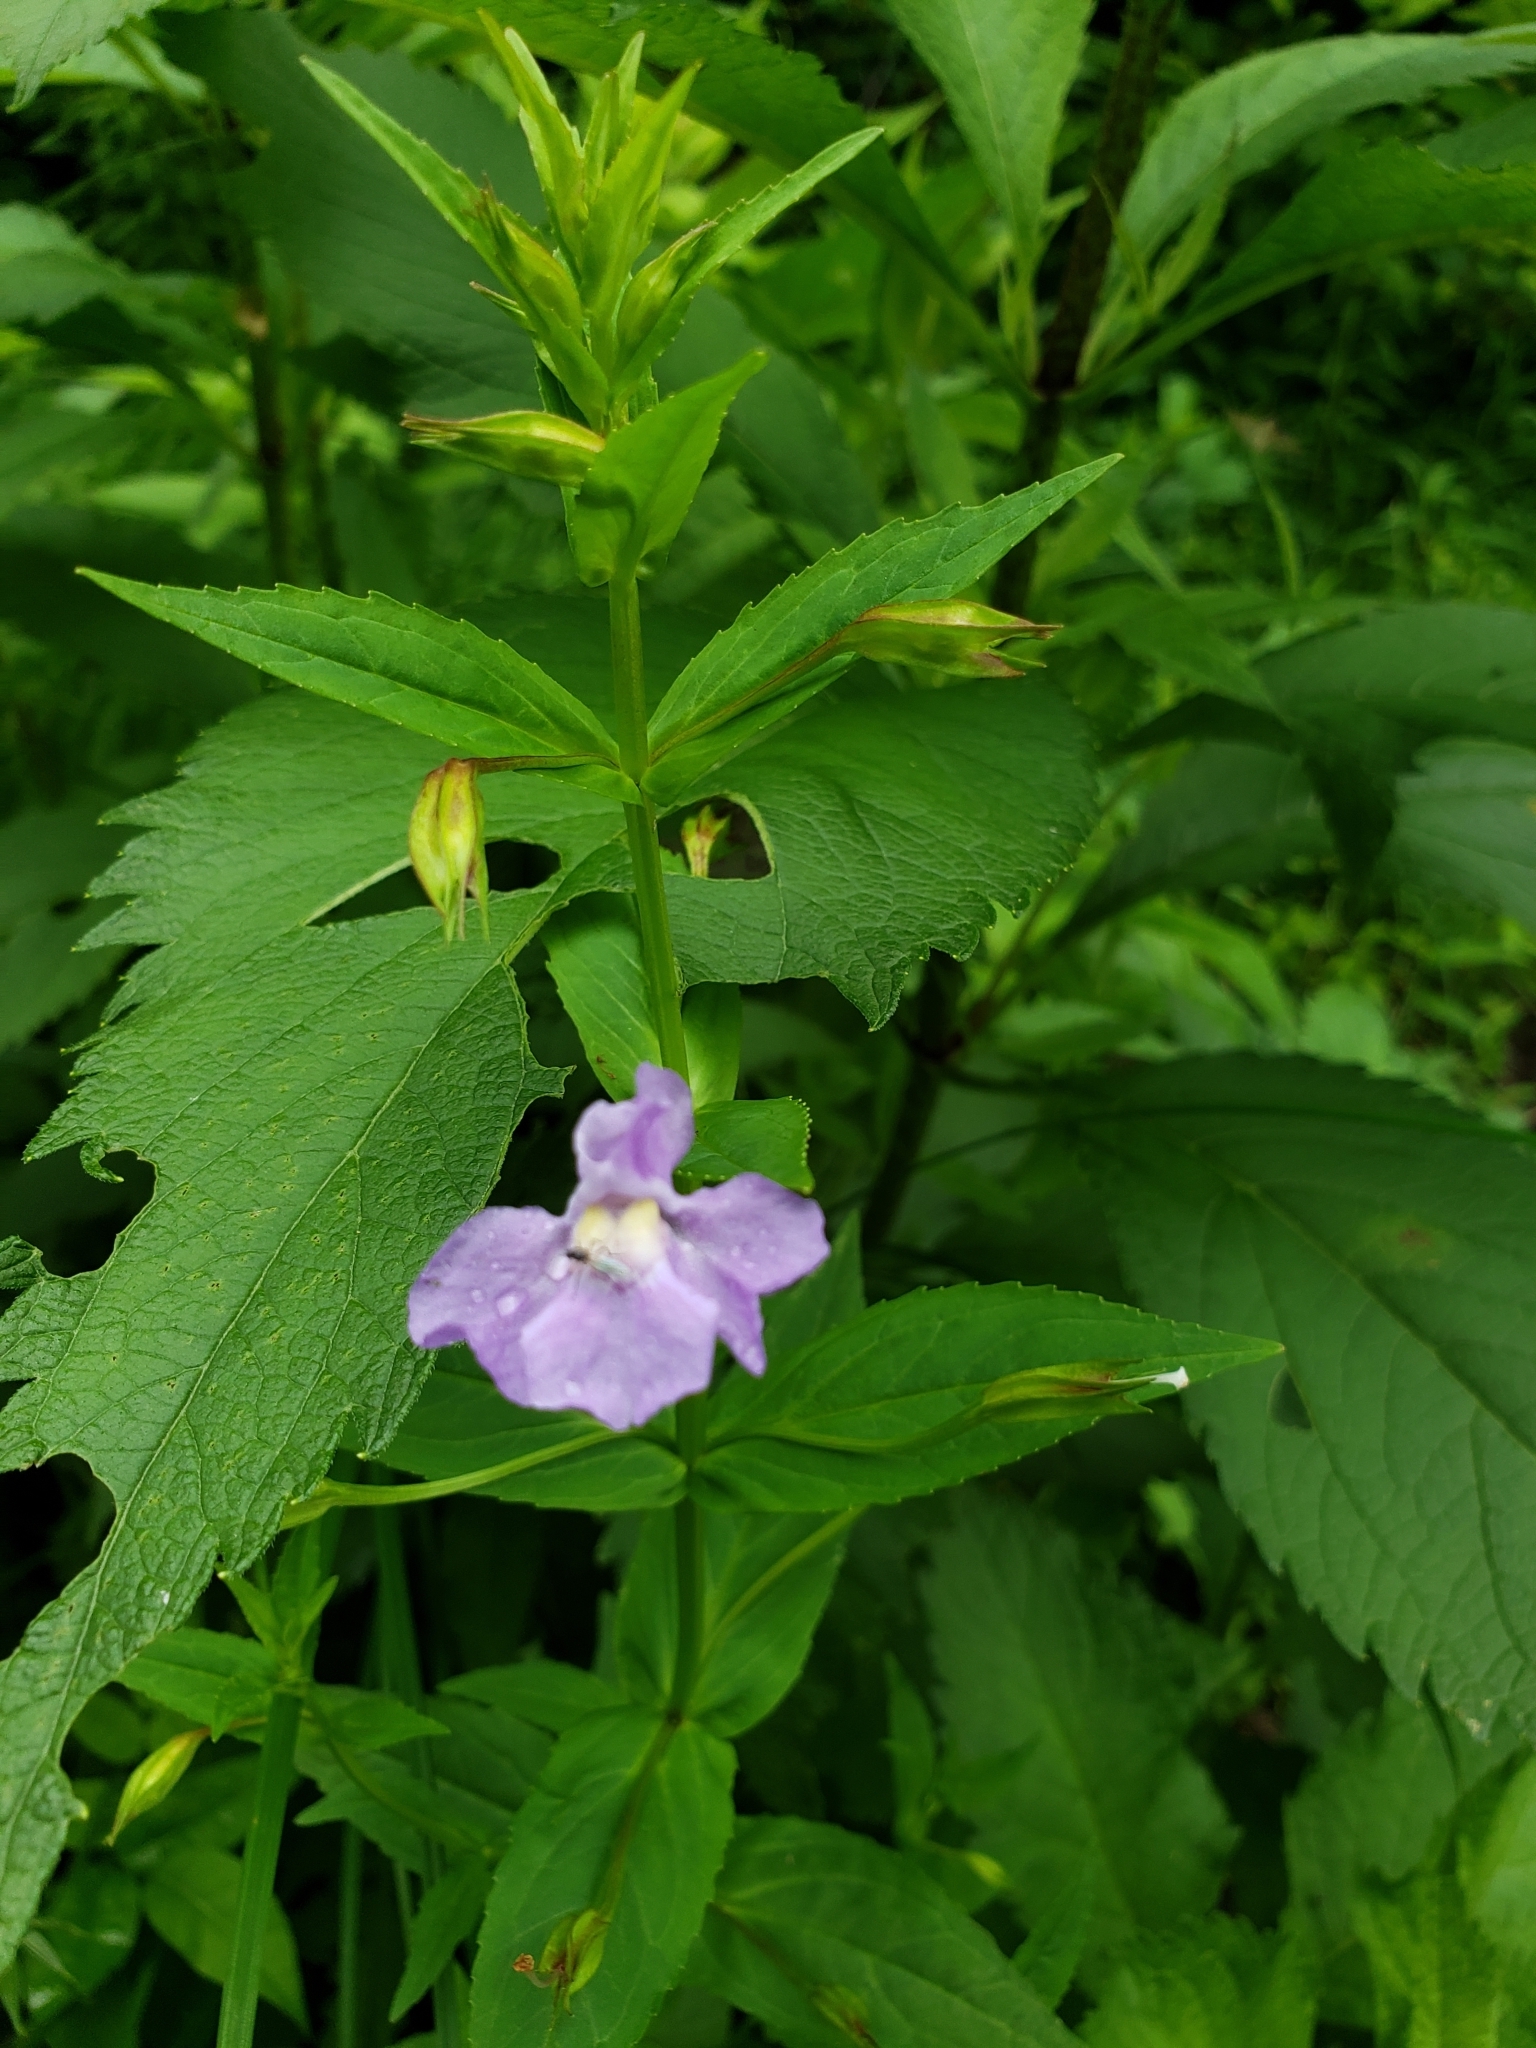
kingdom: Plantae
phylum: Tracheophyta
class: Magnoliopsida
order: Lamiales
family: Phrymaceae
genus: Mimulus
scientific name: Mimulus ringens
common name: Allegheny monkeyflower
